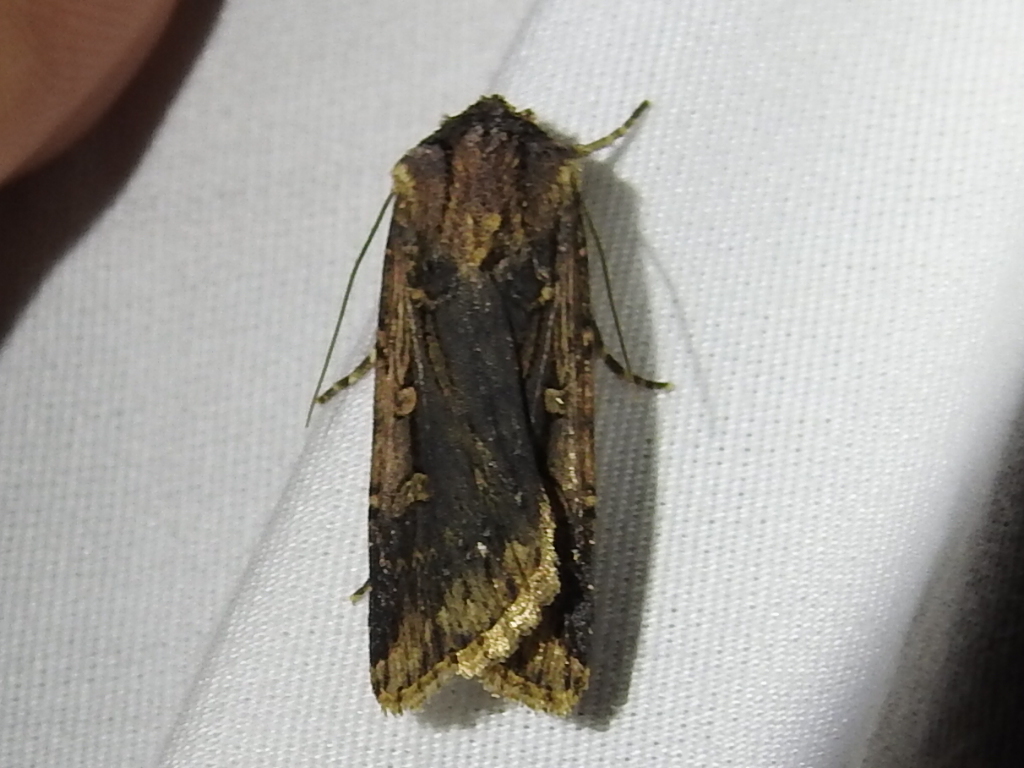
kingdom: Animalia
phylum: Arthropoda
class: Insecta
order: Lepidoptera
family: Noctuidae
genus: Feltia
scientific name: Feltia subterranea
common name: Granulate cutworm
